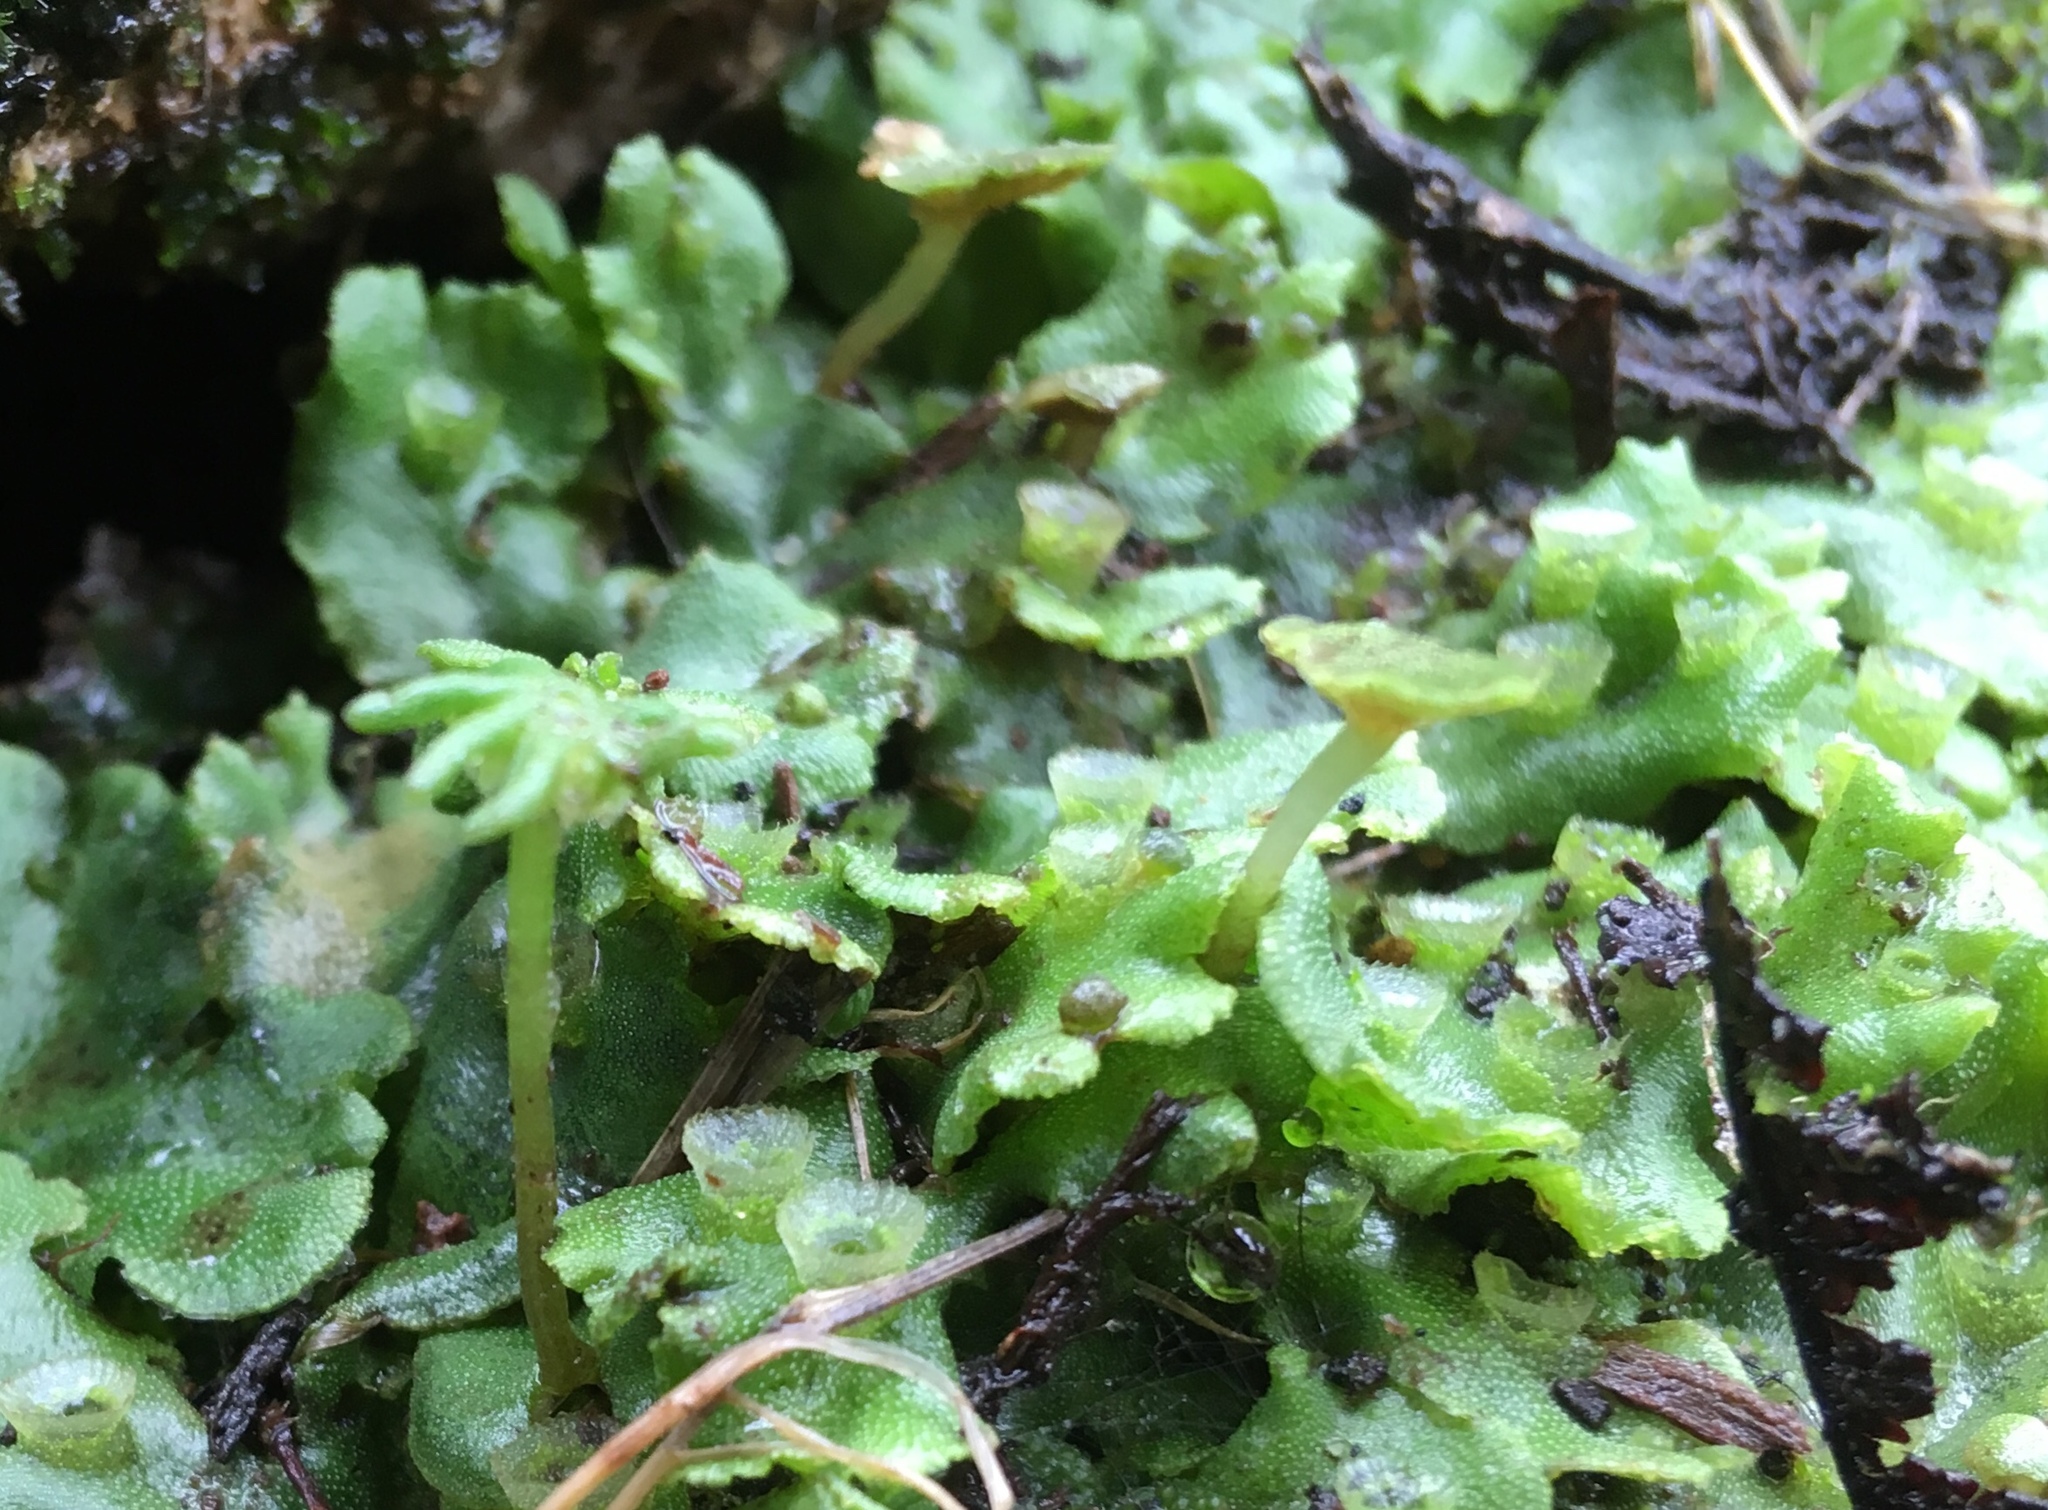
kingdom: Plantae
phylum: Marchantiophyta
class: Marchantiopsida
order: Marchantiales
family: Marchantiaceae
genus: Marchantia
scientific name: Marchantia polymorpha
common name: Common liverwort
